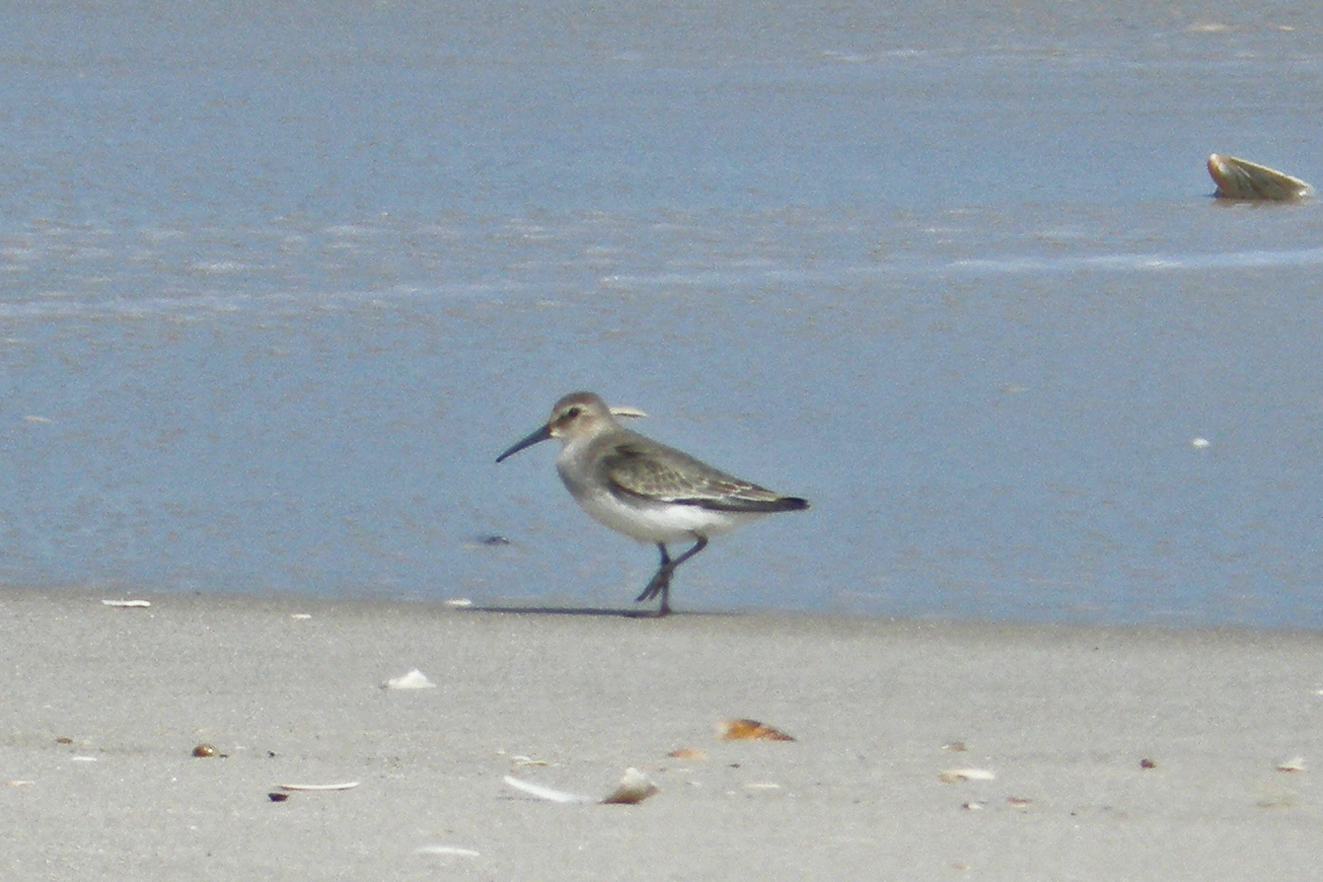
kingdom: Animalia
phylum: Chordata
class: Aves
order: Charadriiformes
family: Scolopacidae
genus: Calidris
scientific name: Calidris alpina
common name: Dunlin
